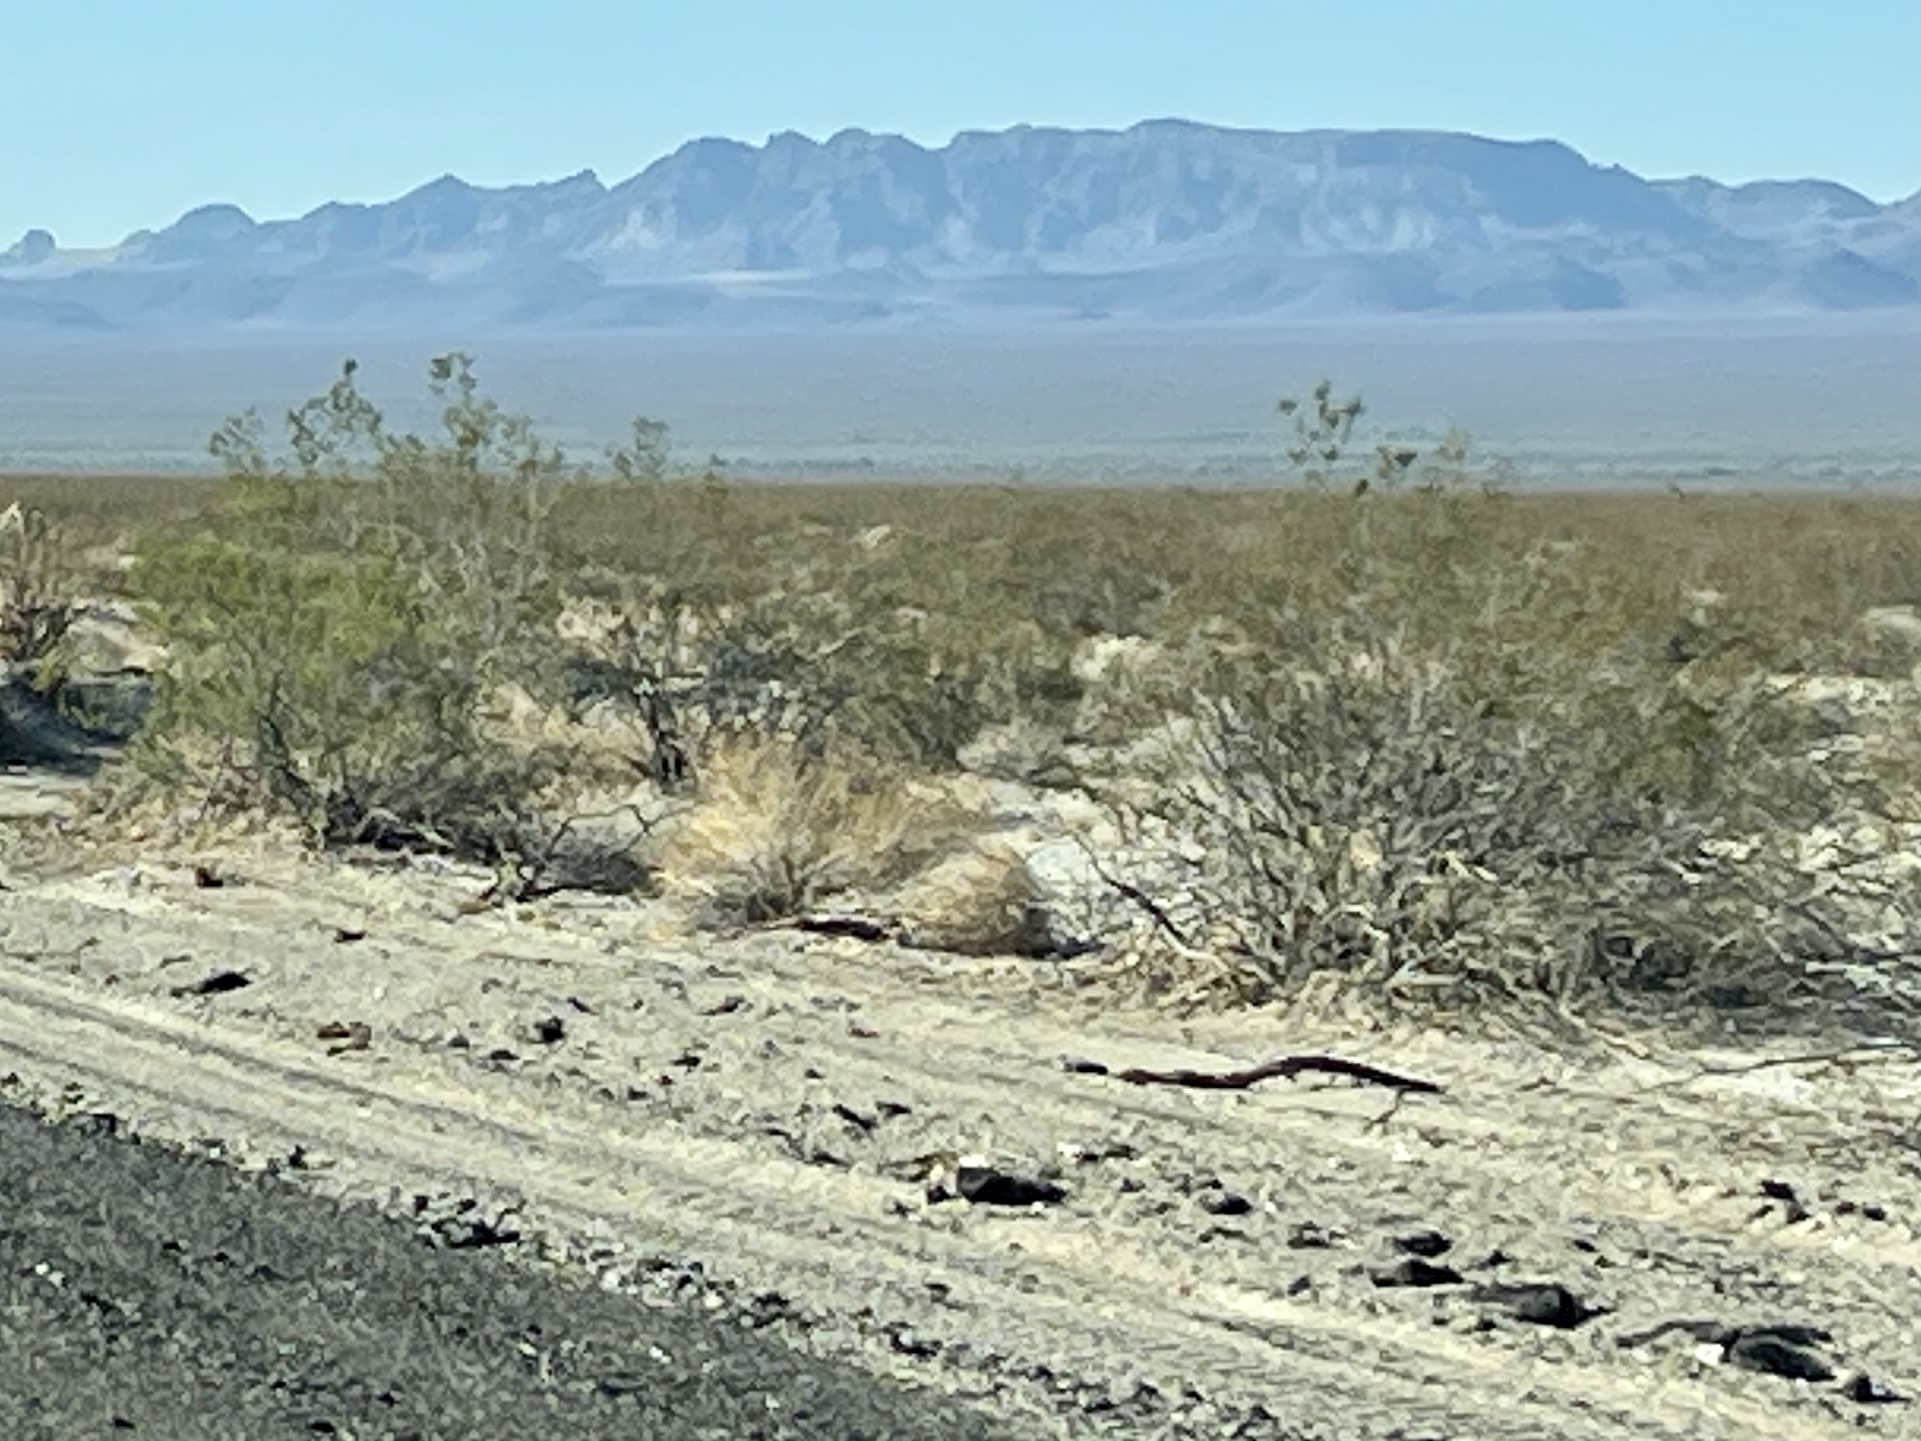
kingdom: Plantae
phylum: Tracheophyta
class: Magnoliopsida
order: Zygophyllales
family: Zygophyllaceae
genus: Larrea
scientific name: Larrea tridentata
